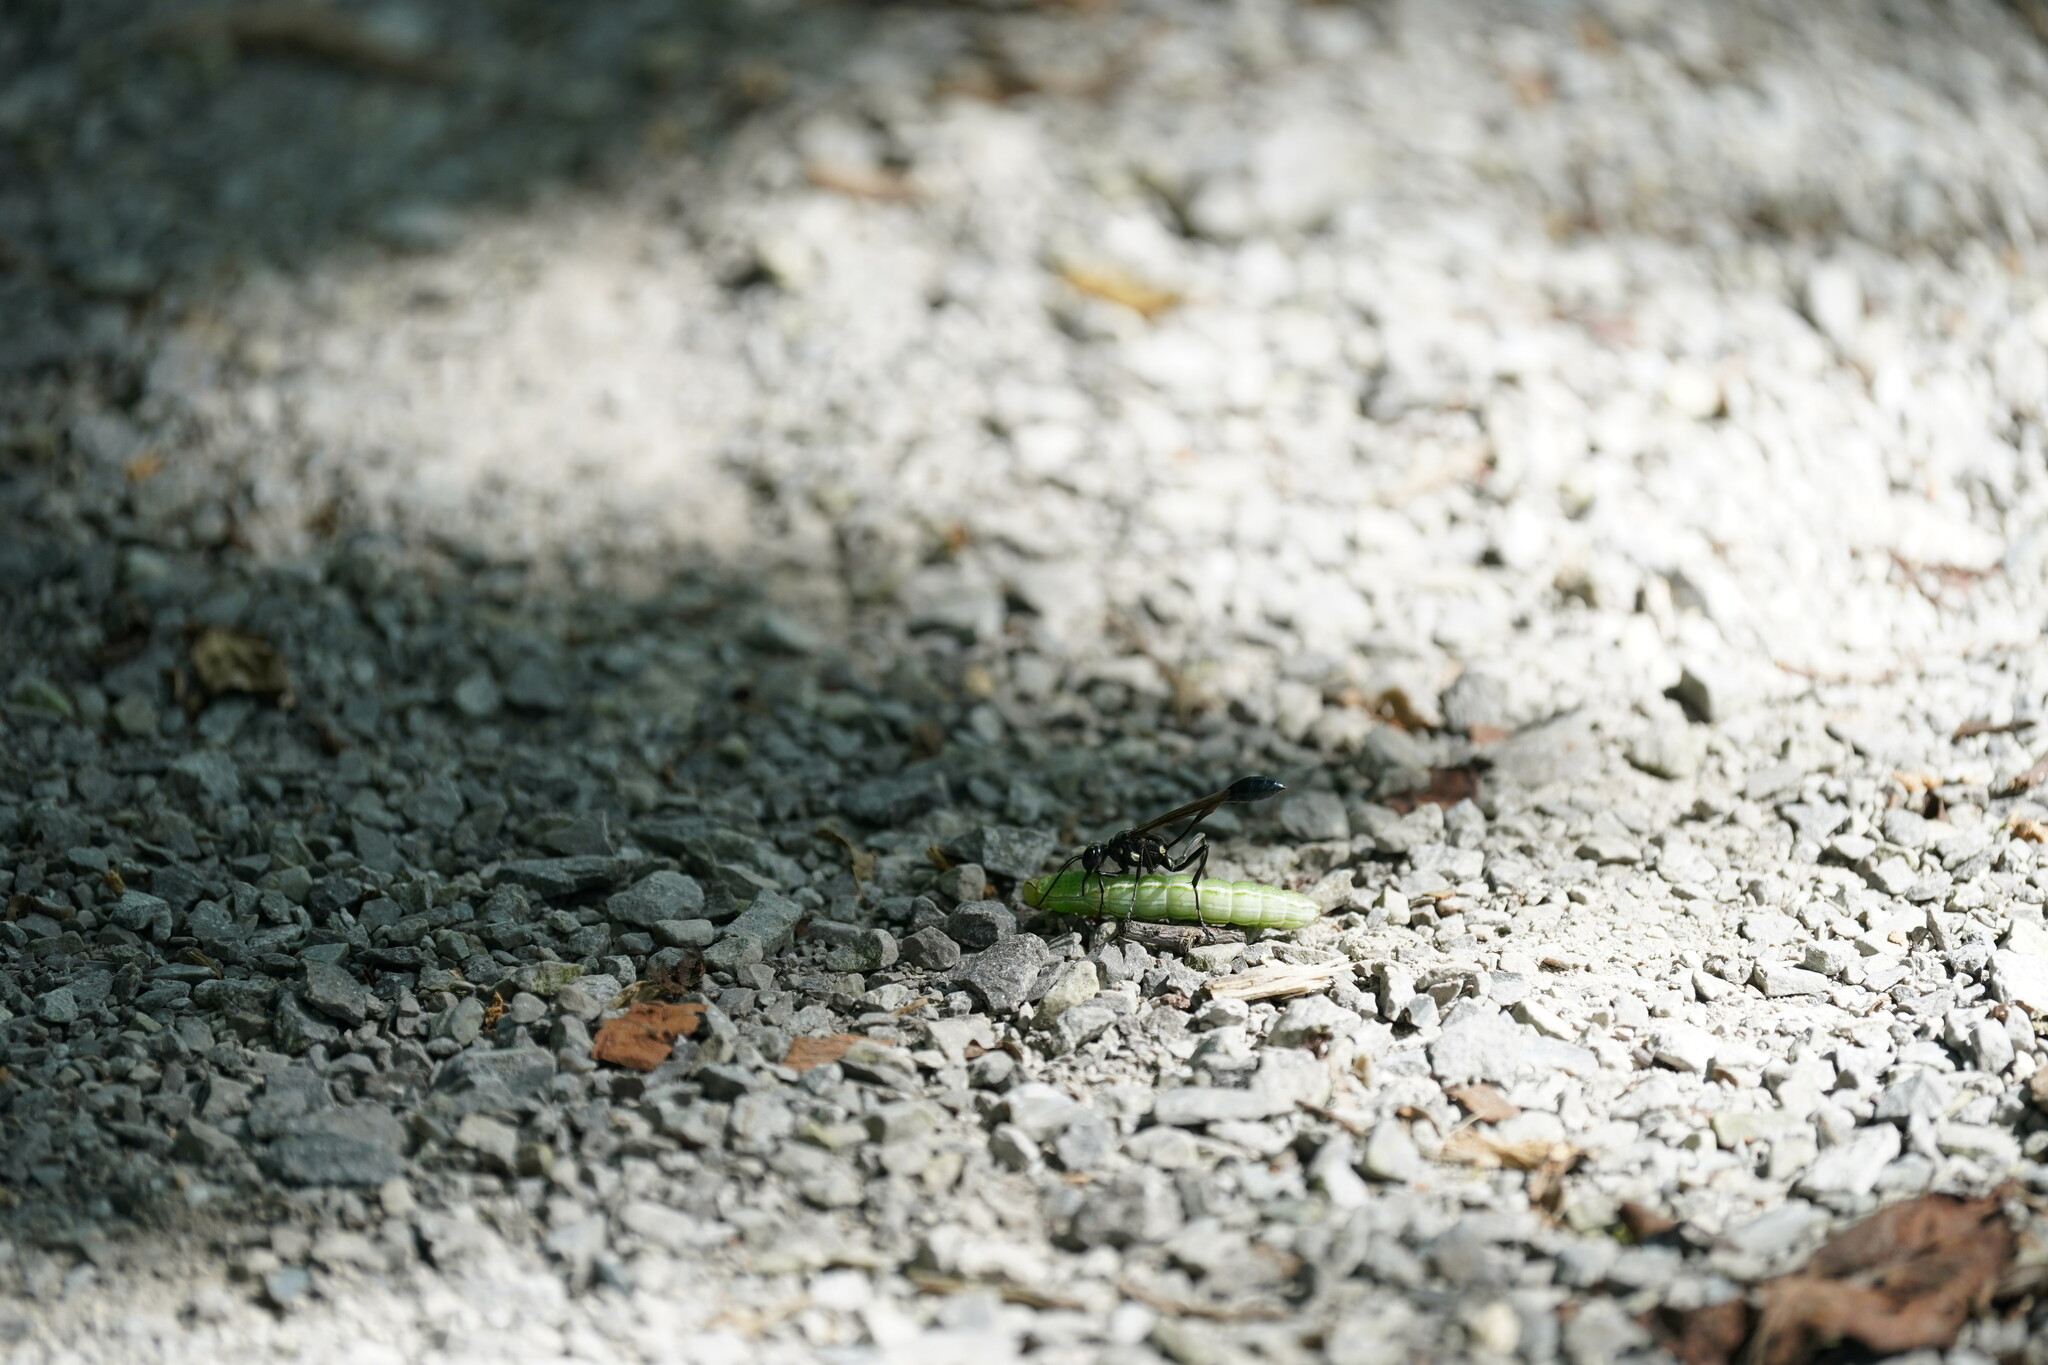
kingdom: Animalia
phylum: Arthropoda
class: Insecta
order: Hymenoptera
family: Sphecidae
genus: Eremnophila
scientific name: Eremnophila aureonotata
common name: Gold-marked thread-waisted wasp
